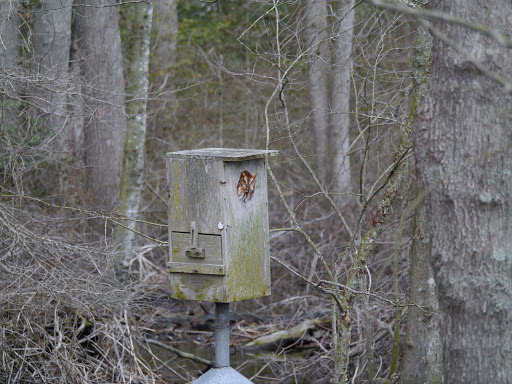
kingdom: Animalia
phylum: Chordata
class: Aves
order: Strigiformes
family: Strigidae
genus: Megascops
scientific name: Megascops asio
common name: Eastern screech-owl
